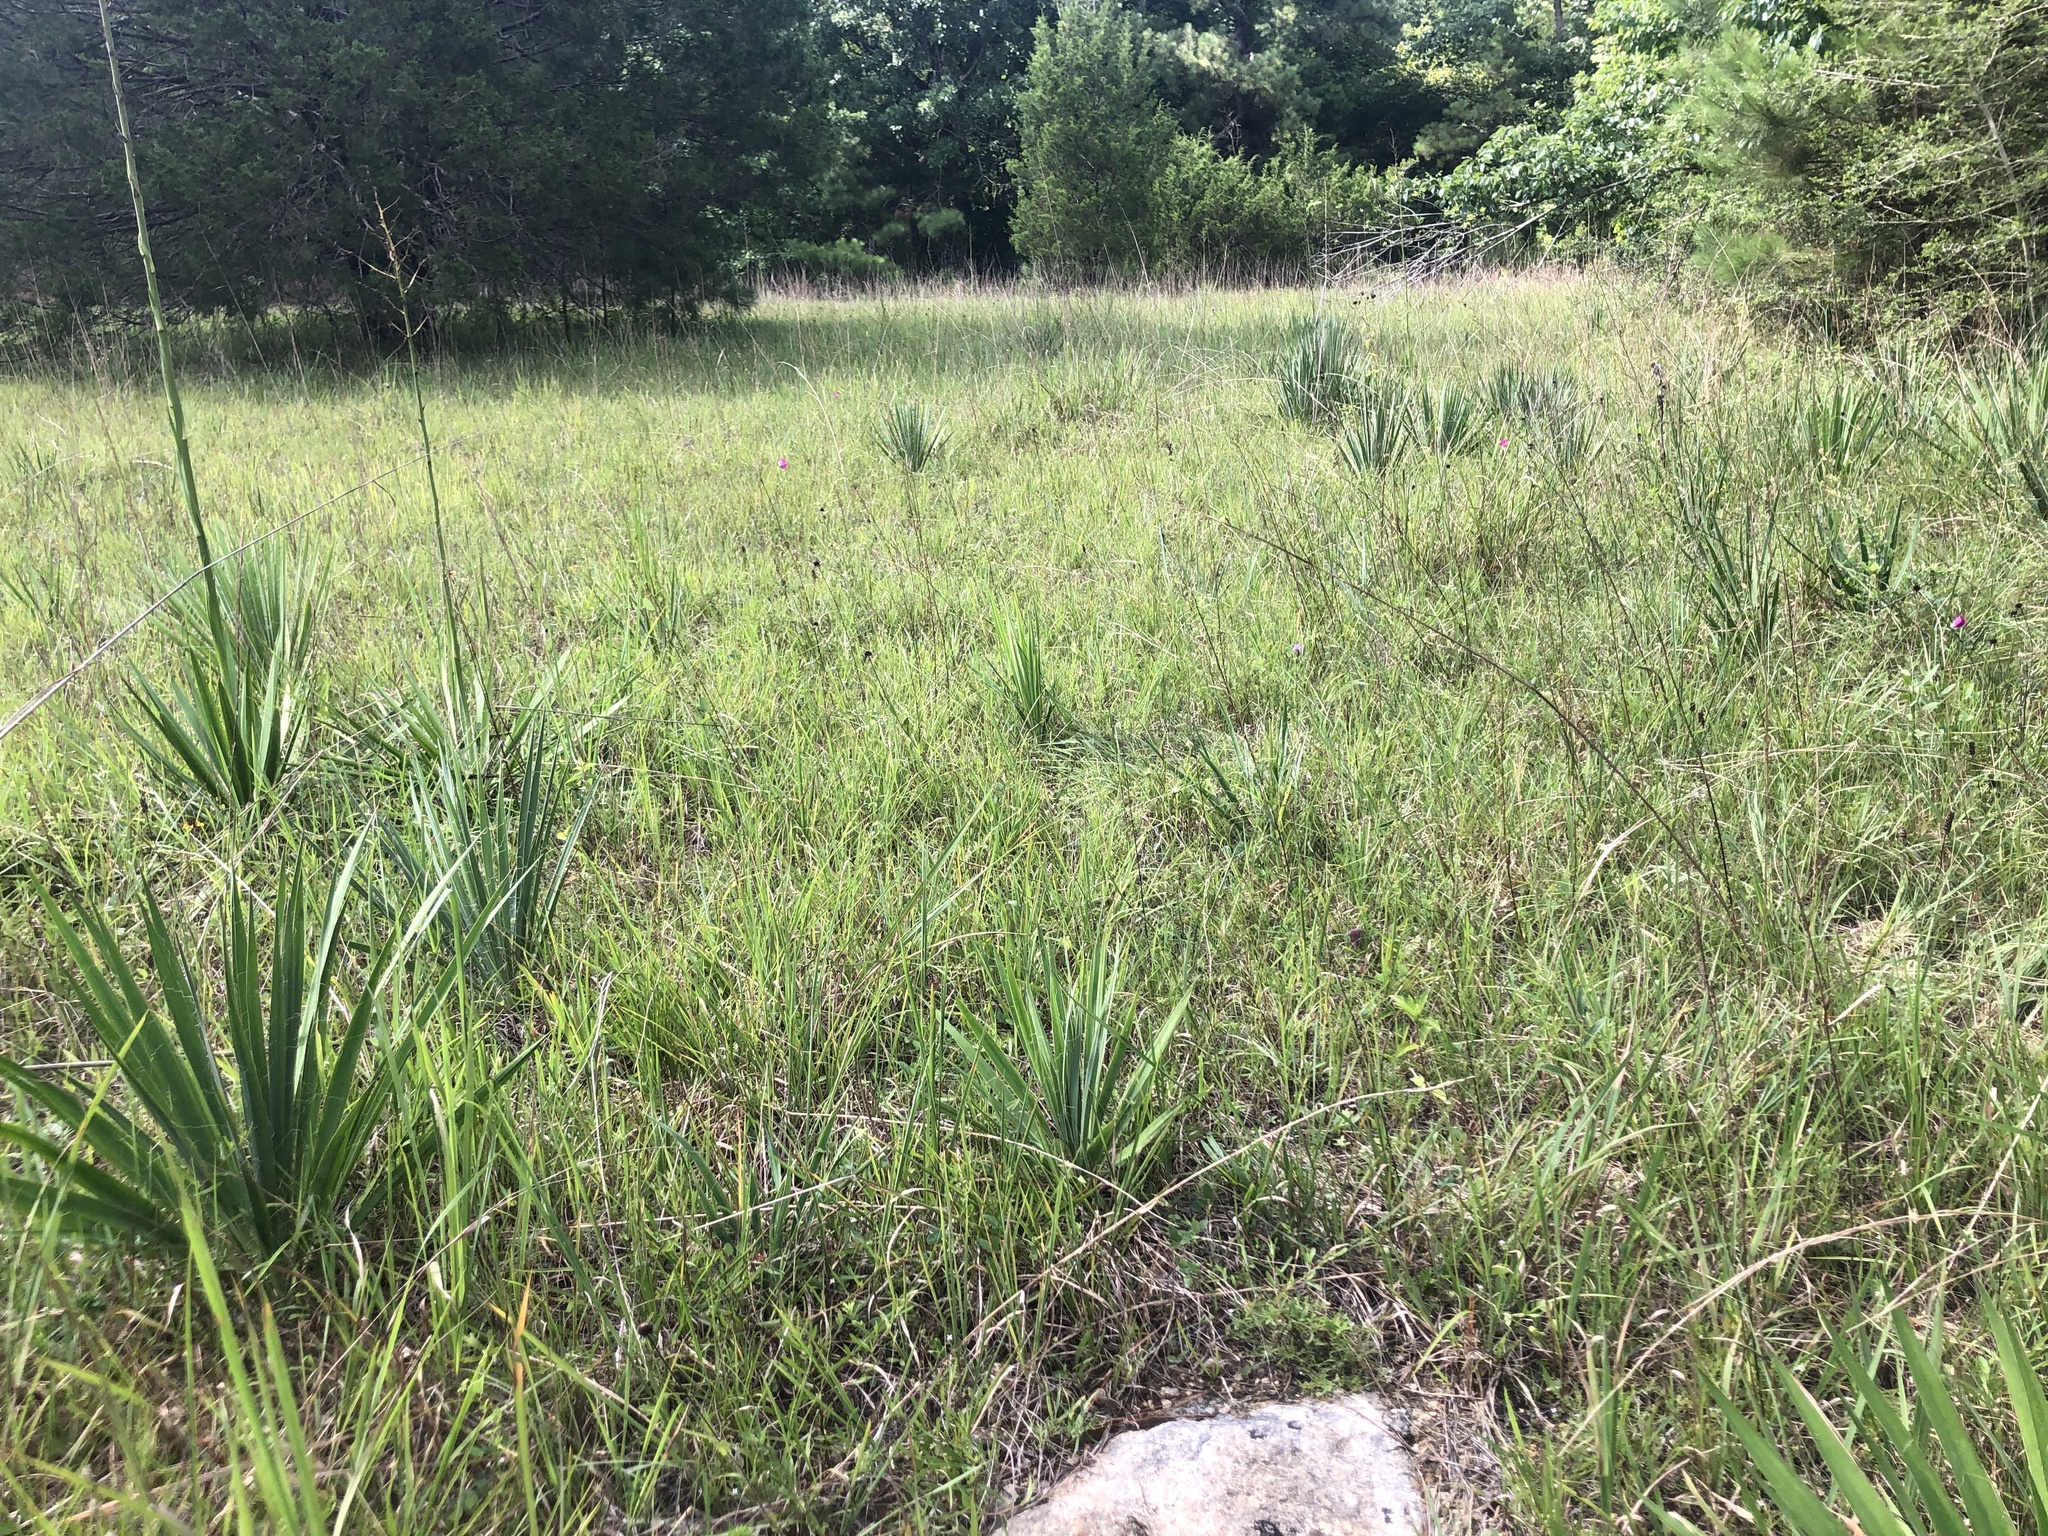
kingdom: Plantae
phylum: Tracheophyta
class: Liliopsida
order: Asparagales
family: Asparagaceae
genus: Yucca
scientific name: Yucca flaccida
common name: Adam's-needle
